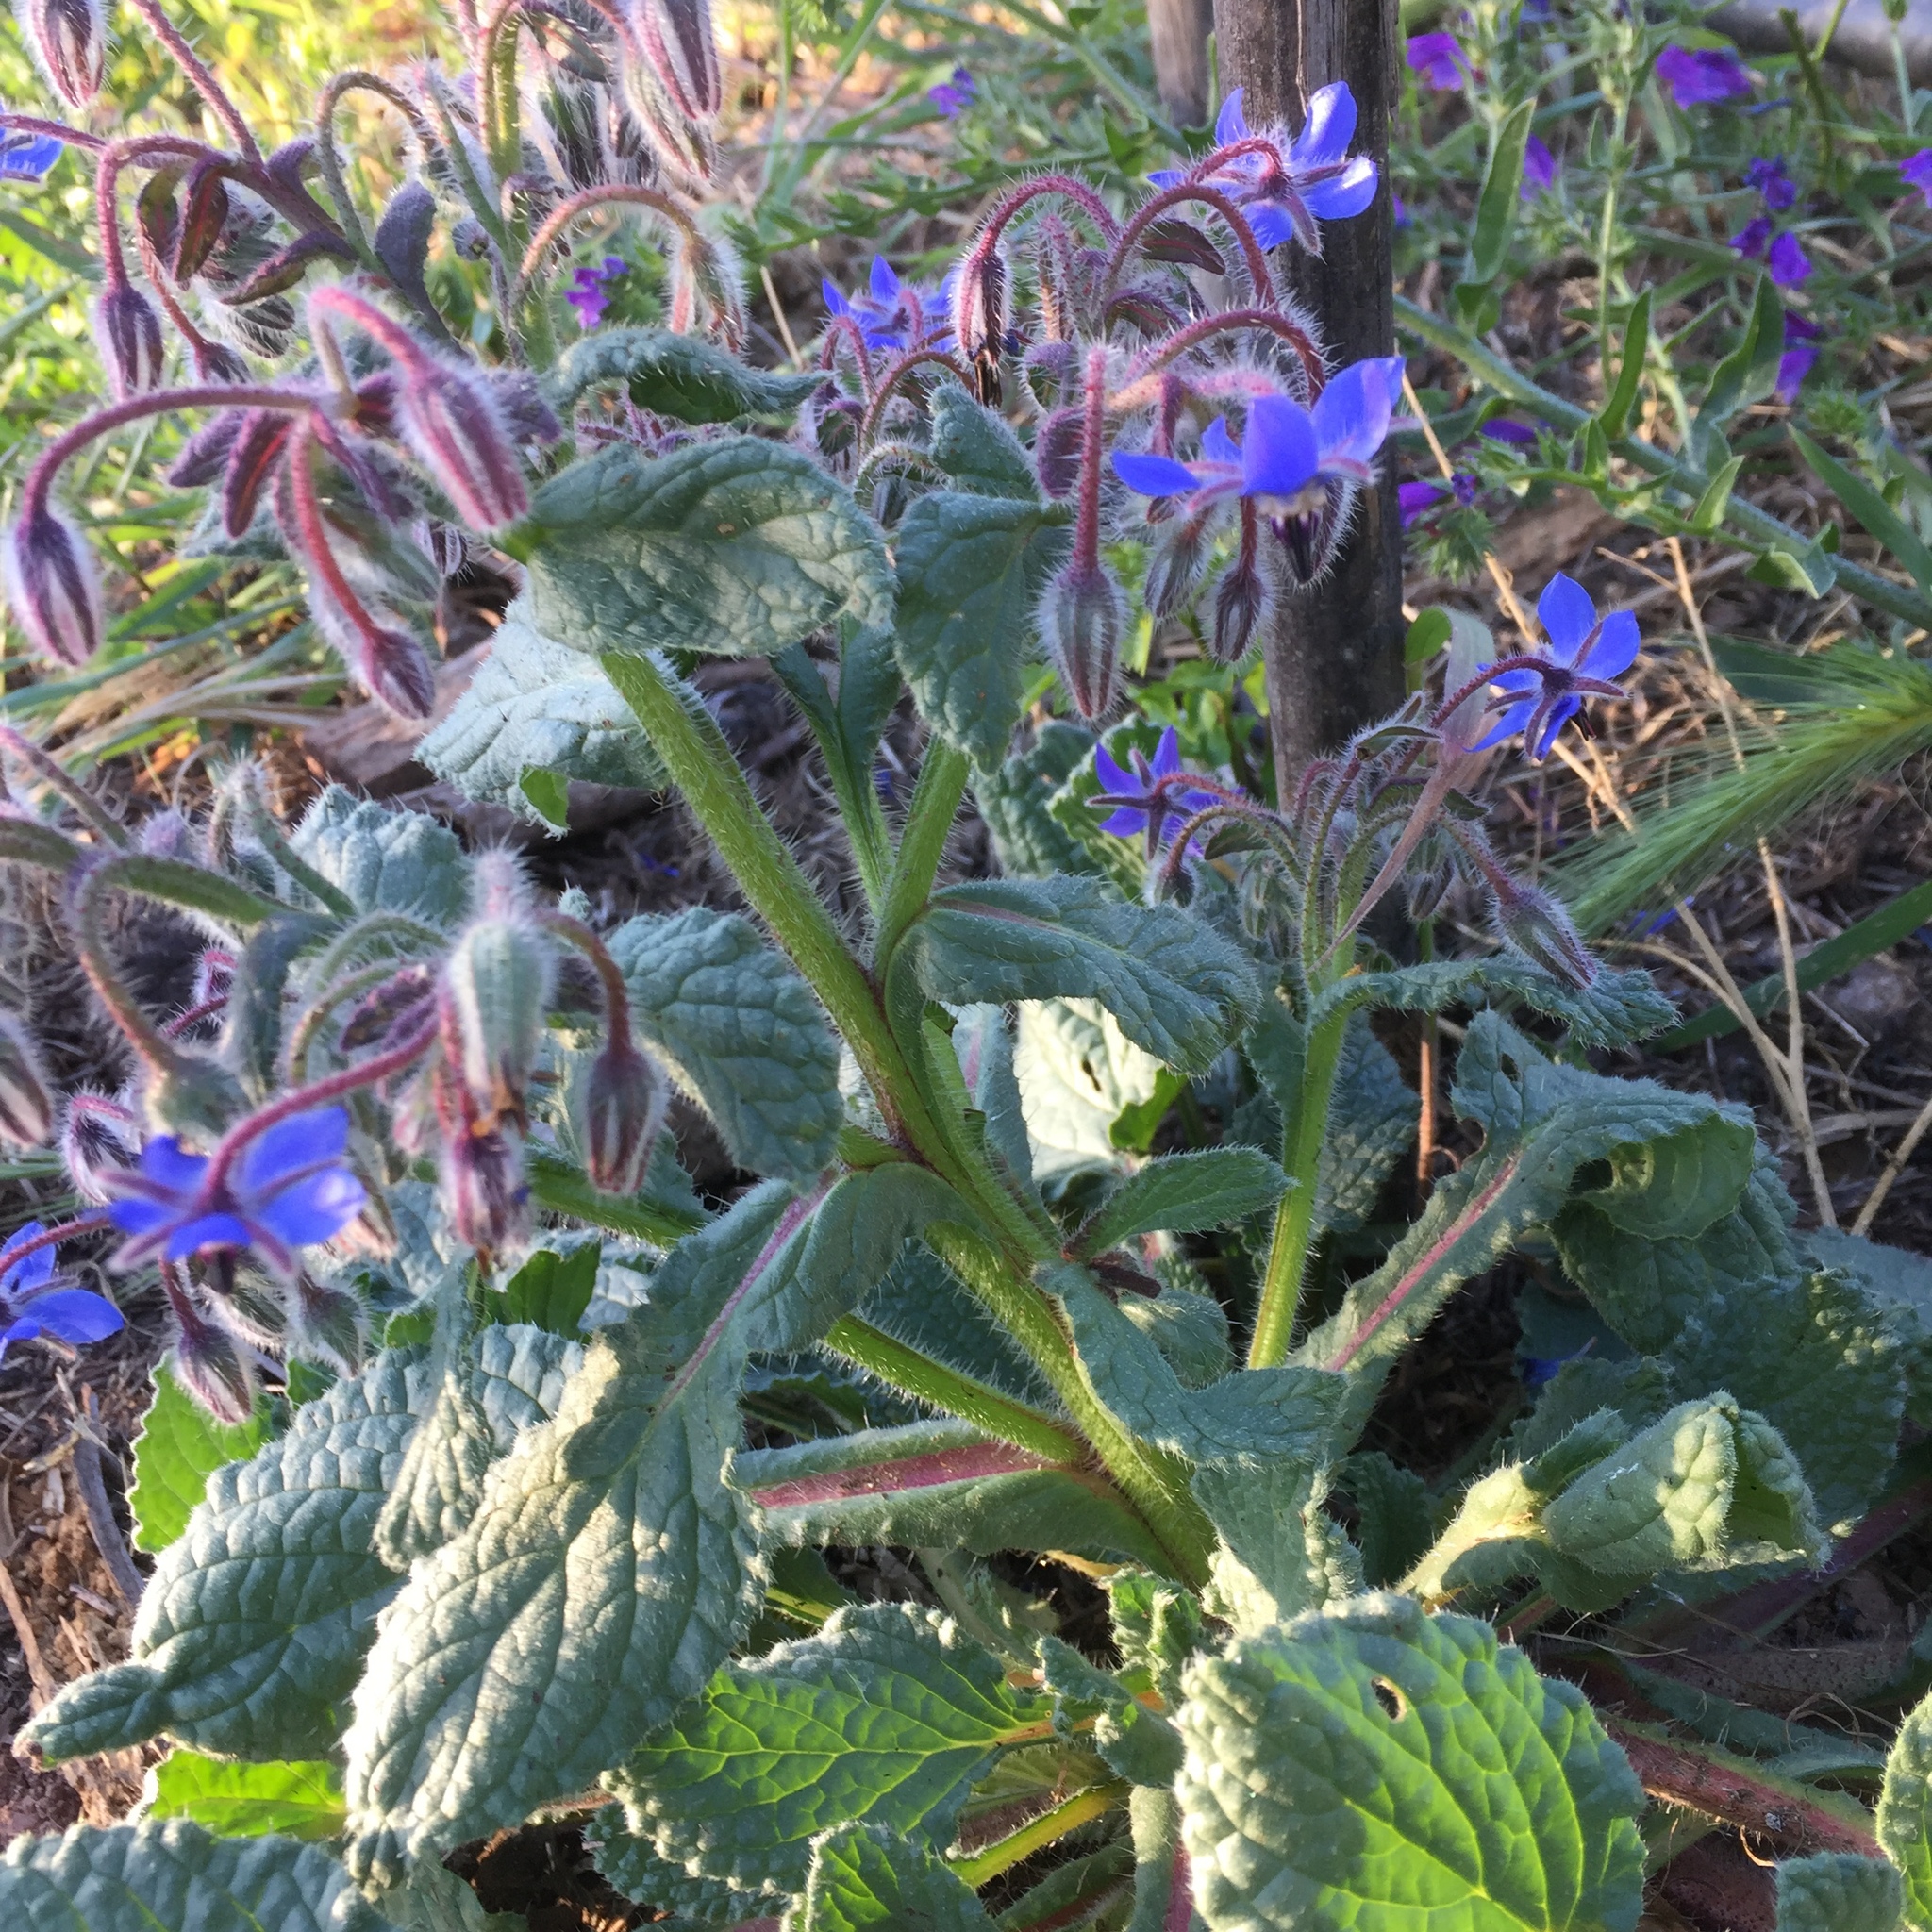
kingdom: Plantae
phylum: Tracheophyta
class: Magnoliopsida
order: Boraginales
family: Boraginaceae
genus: Borago
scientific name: Borago officinalis
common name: Borage
